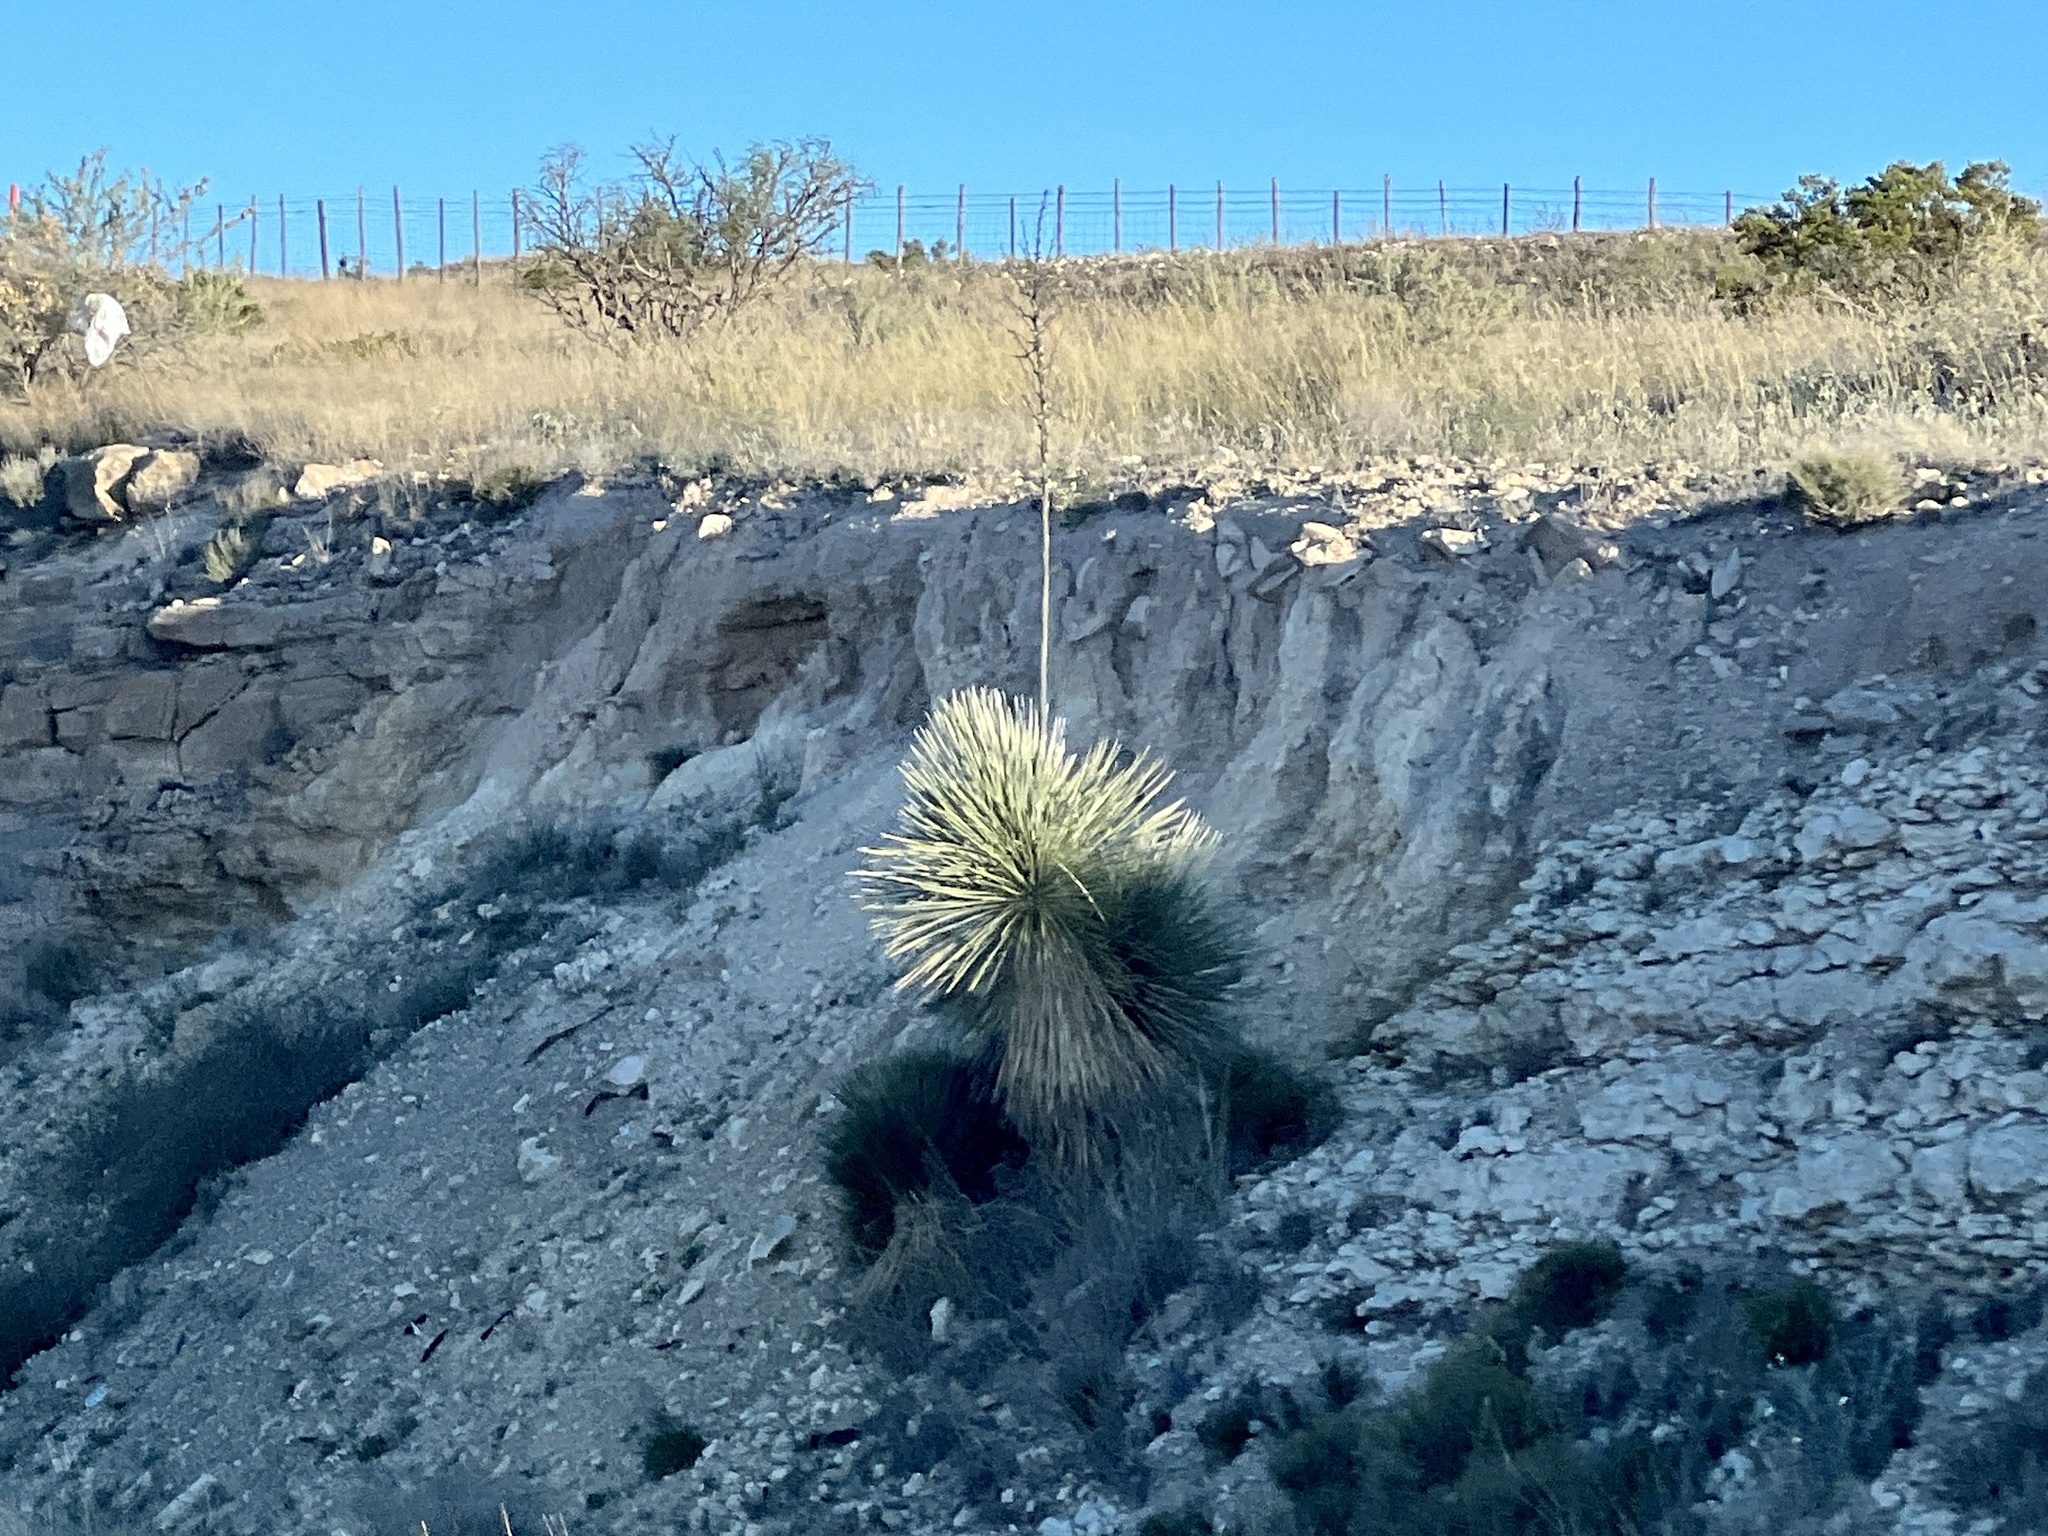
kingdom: Plantae
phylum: Tracheophyta
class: Liliopsida
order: Asparagales
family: Asparagaceae
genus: Yucca
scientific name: Yucca elata
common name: Palmella
